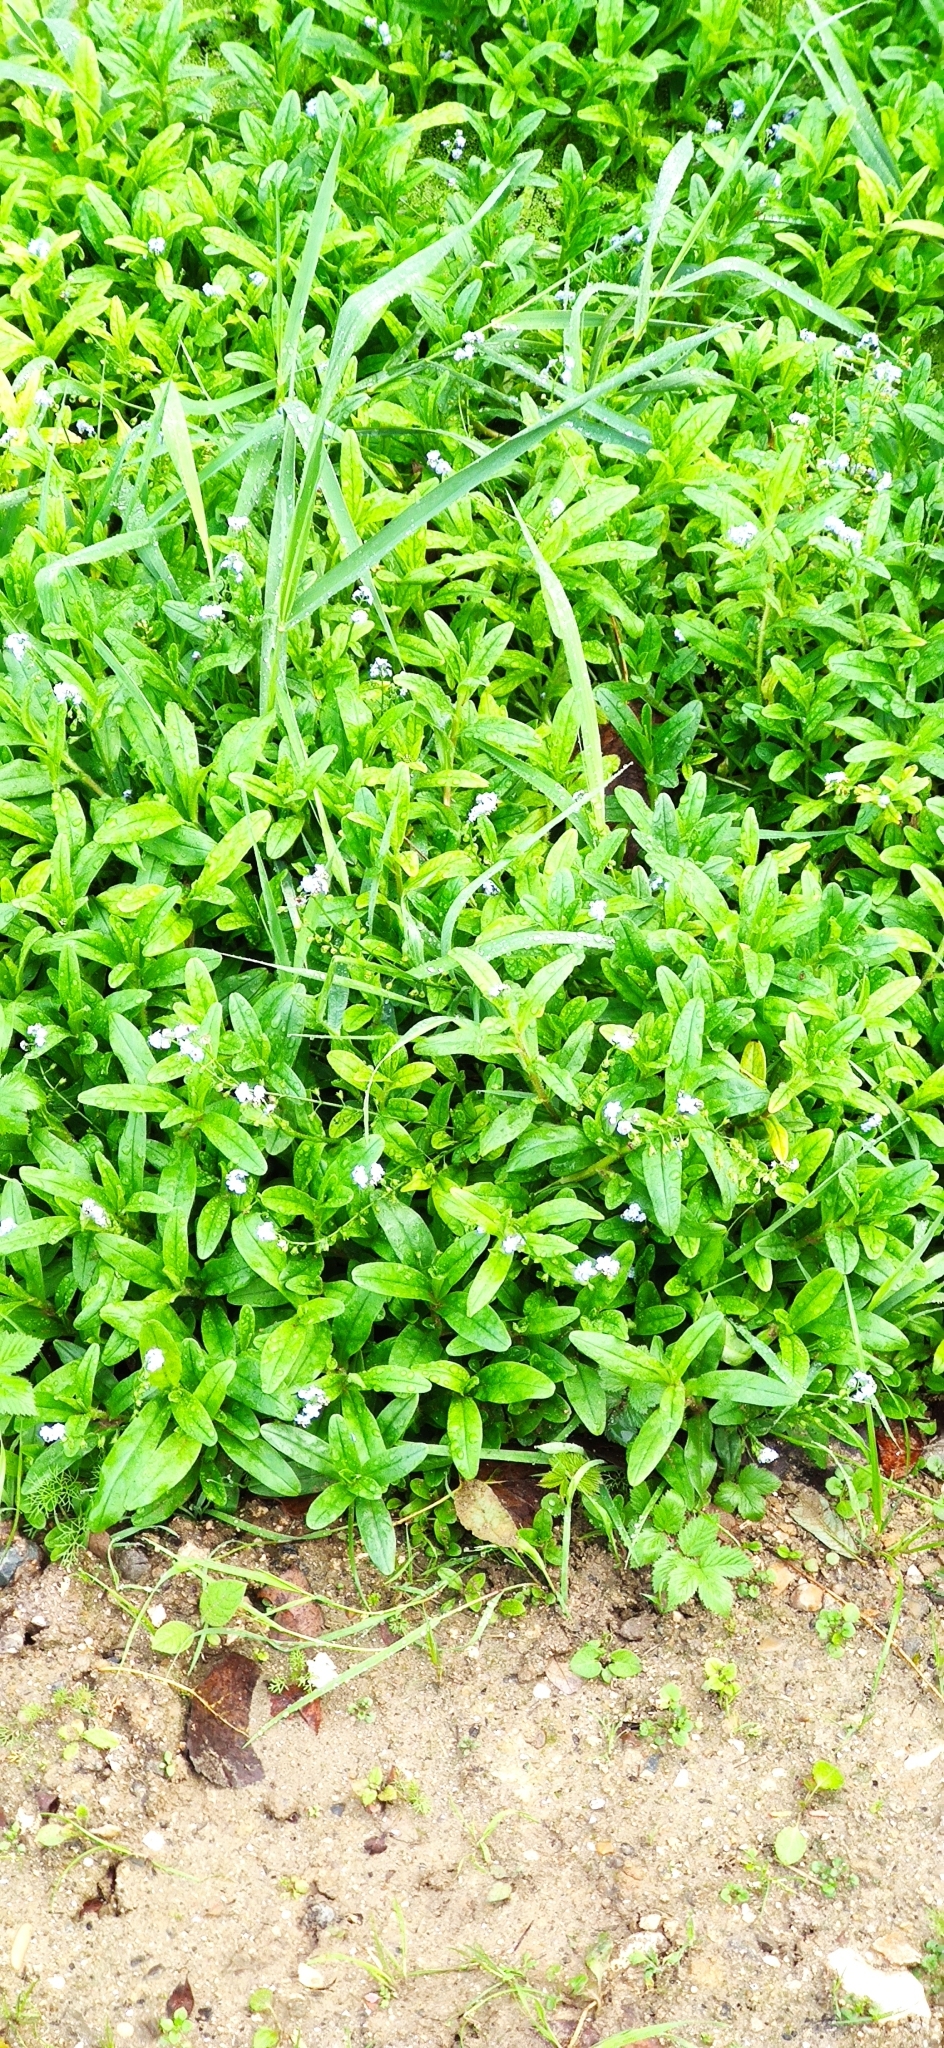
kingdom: Plantae
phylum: Tracheophyta
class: Magnoliopsida
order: Boraginales
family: Boraginaceae
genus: Myosotis
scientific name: Myosotis scorpioides
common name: Water forget-me-not
